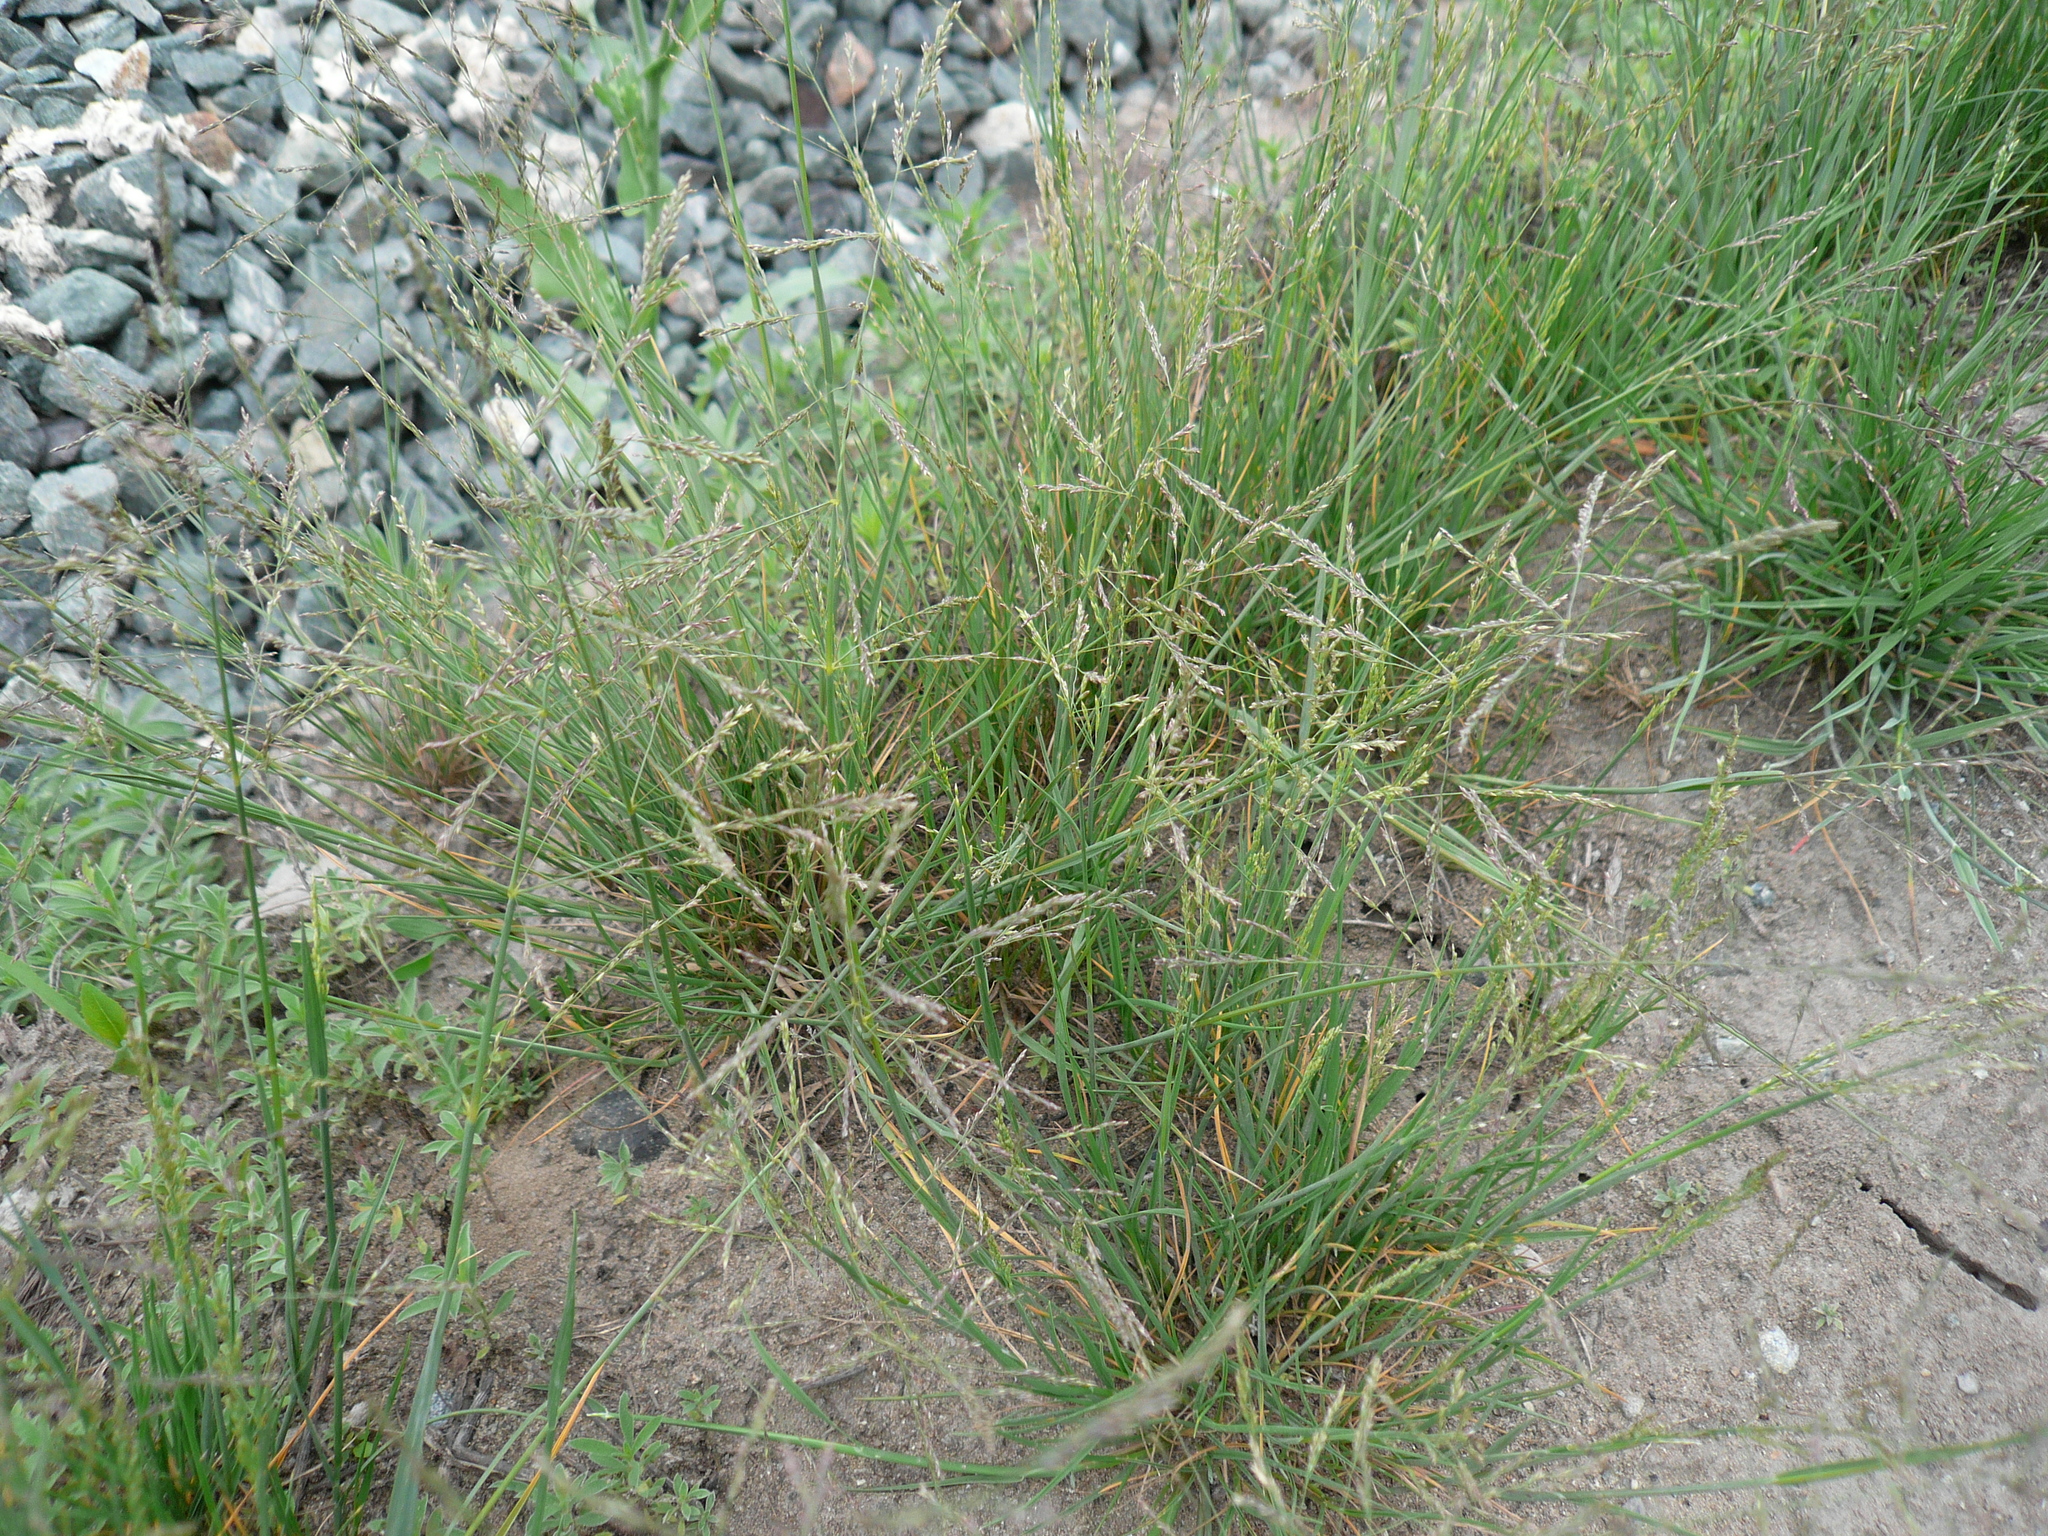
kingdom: Plantae
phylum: Tracheophyta
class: Liliopsida
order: Poales
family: Poaceae
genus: Puccinellia
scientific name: Puccinellia distans
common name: Weeping alkaligrass
